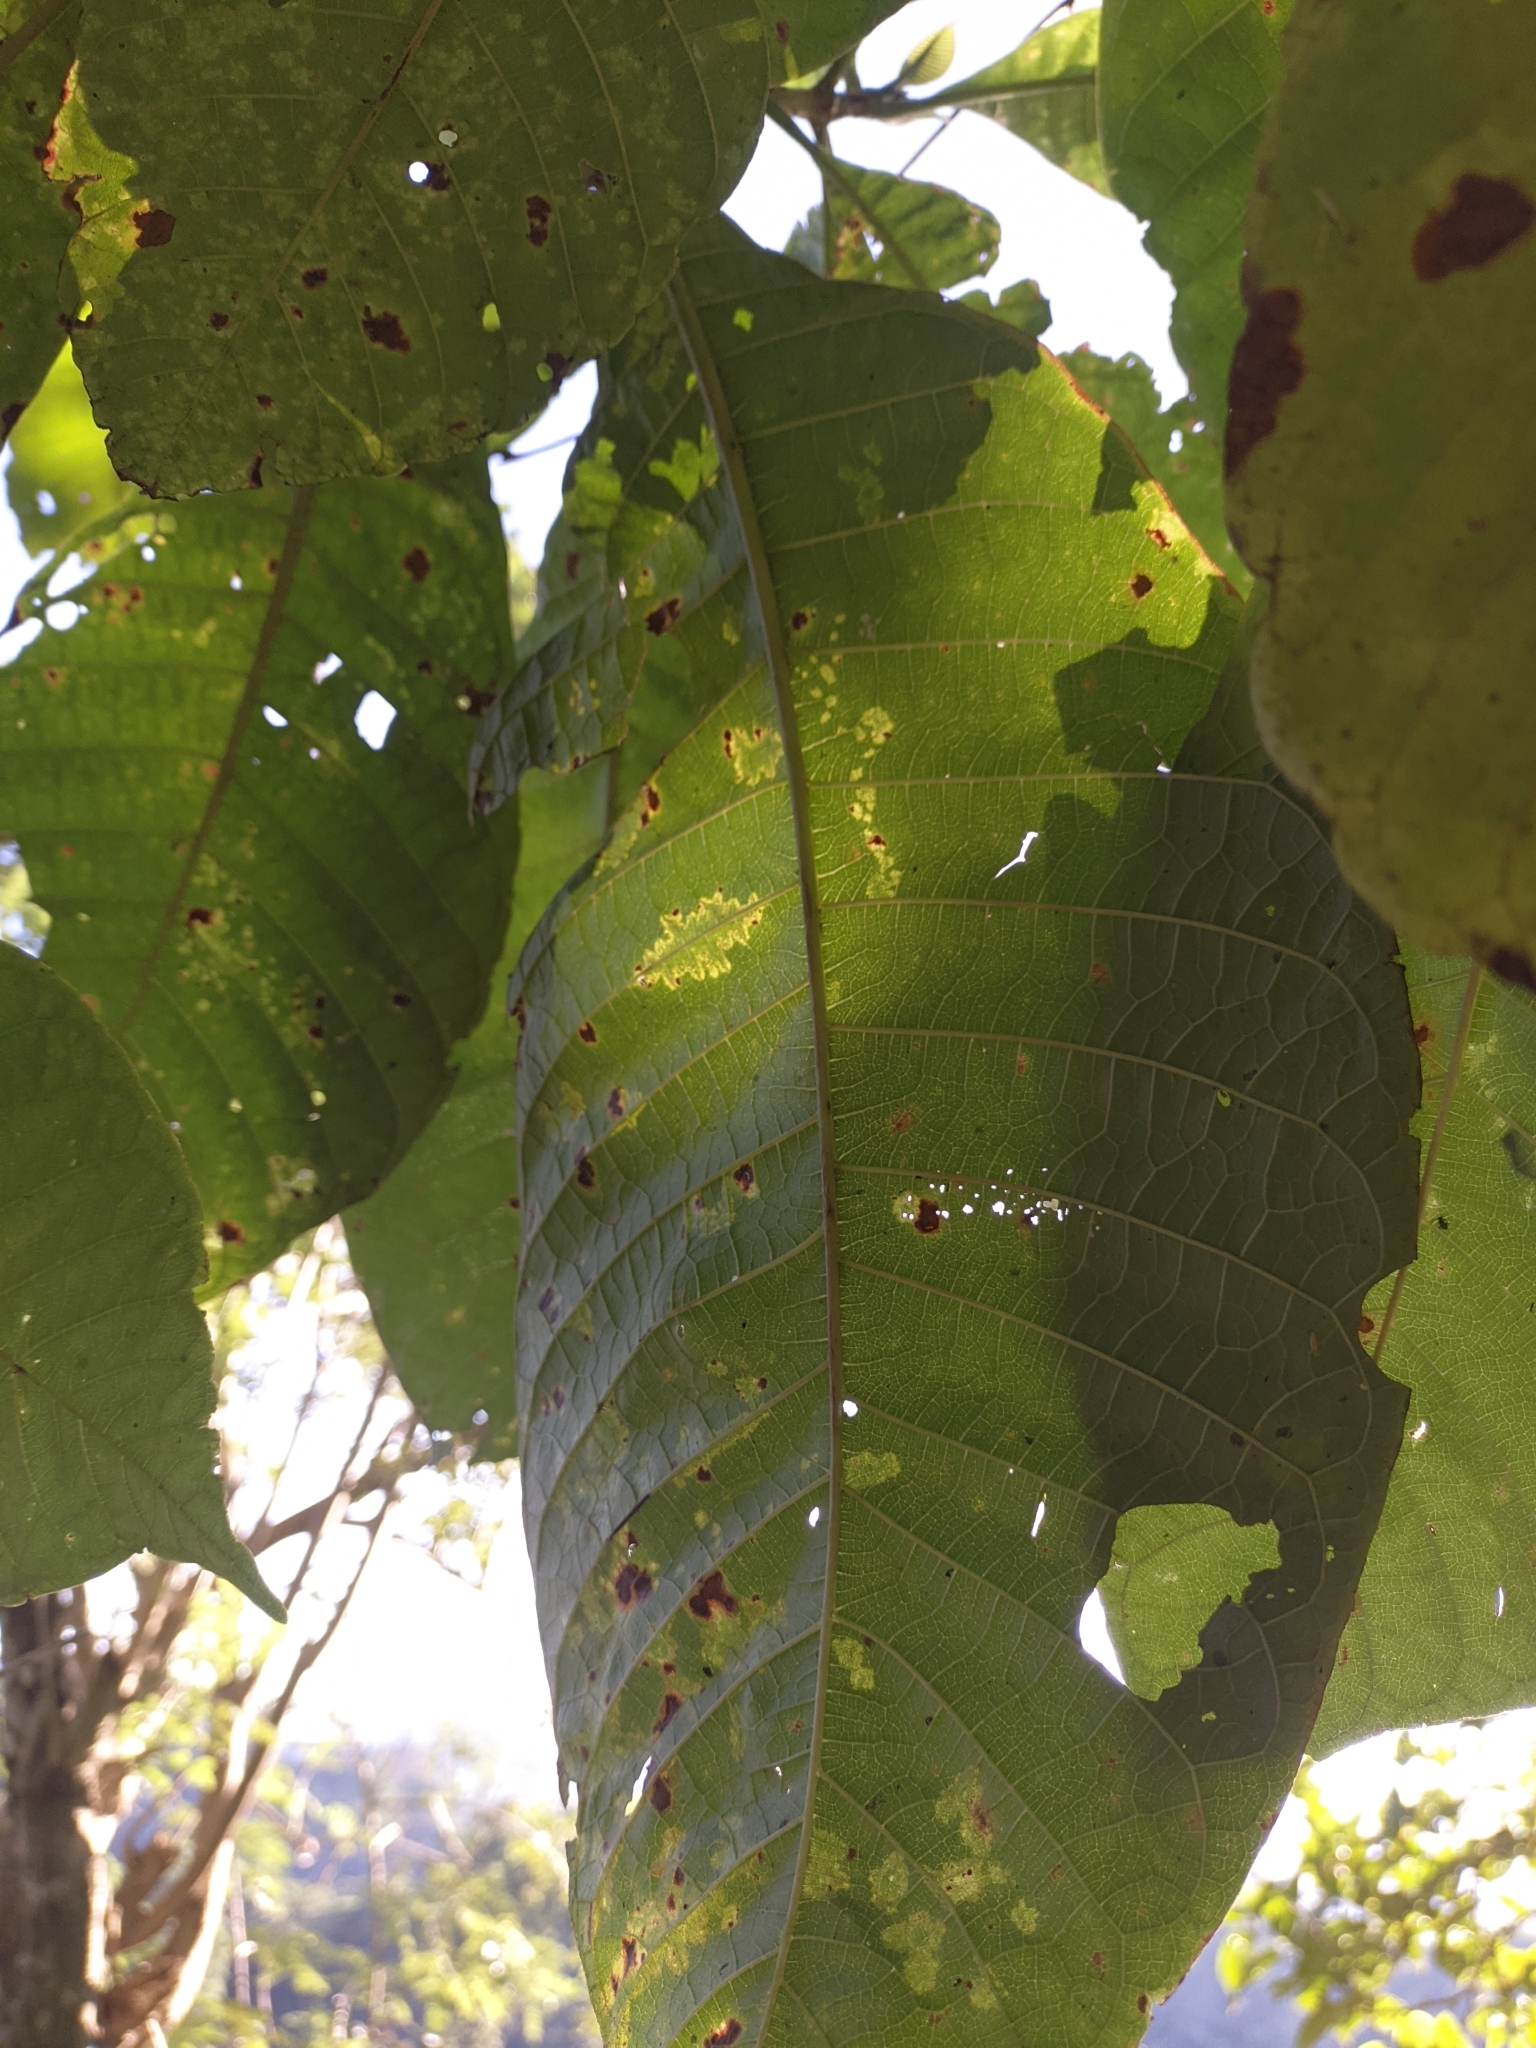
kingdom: Plantae
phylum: Tracheophyta
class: Magnoliopsida
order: Gentianales
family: Rubiaceae
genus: Isertia
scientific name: Isertia haenkeana
